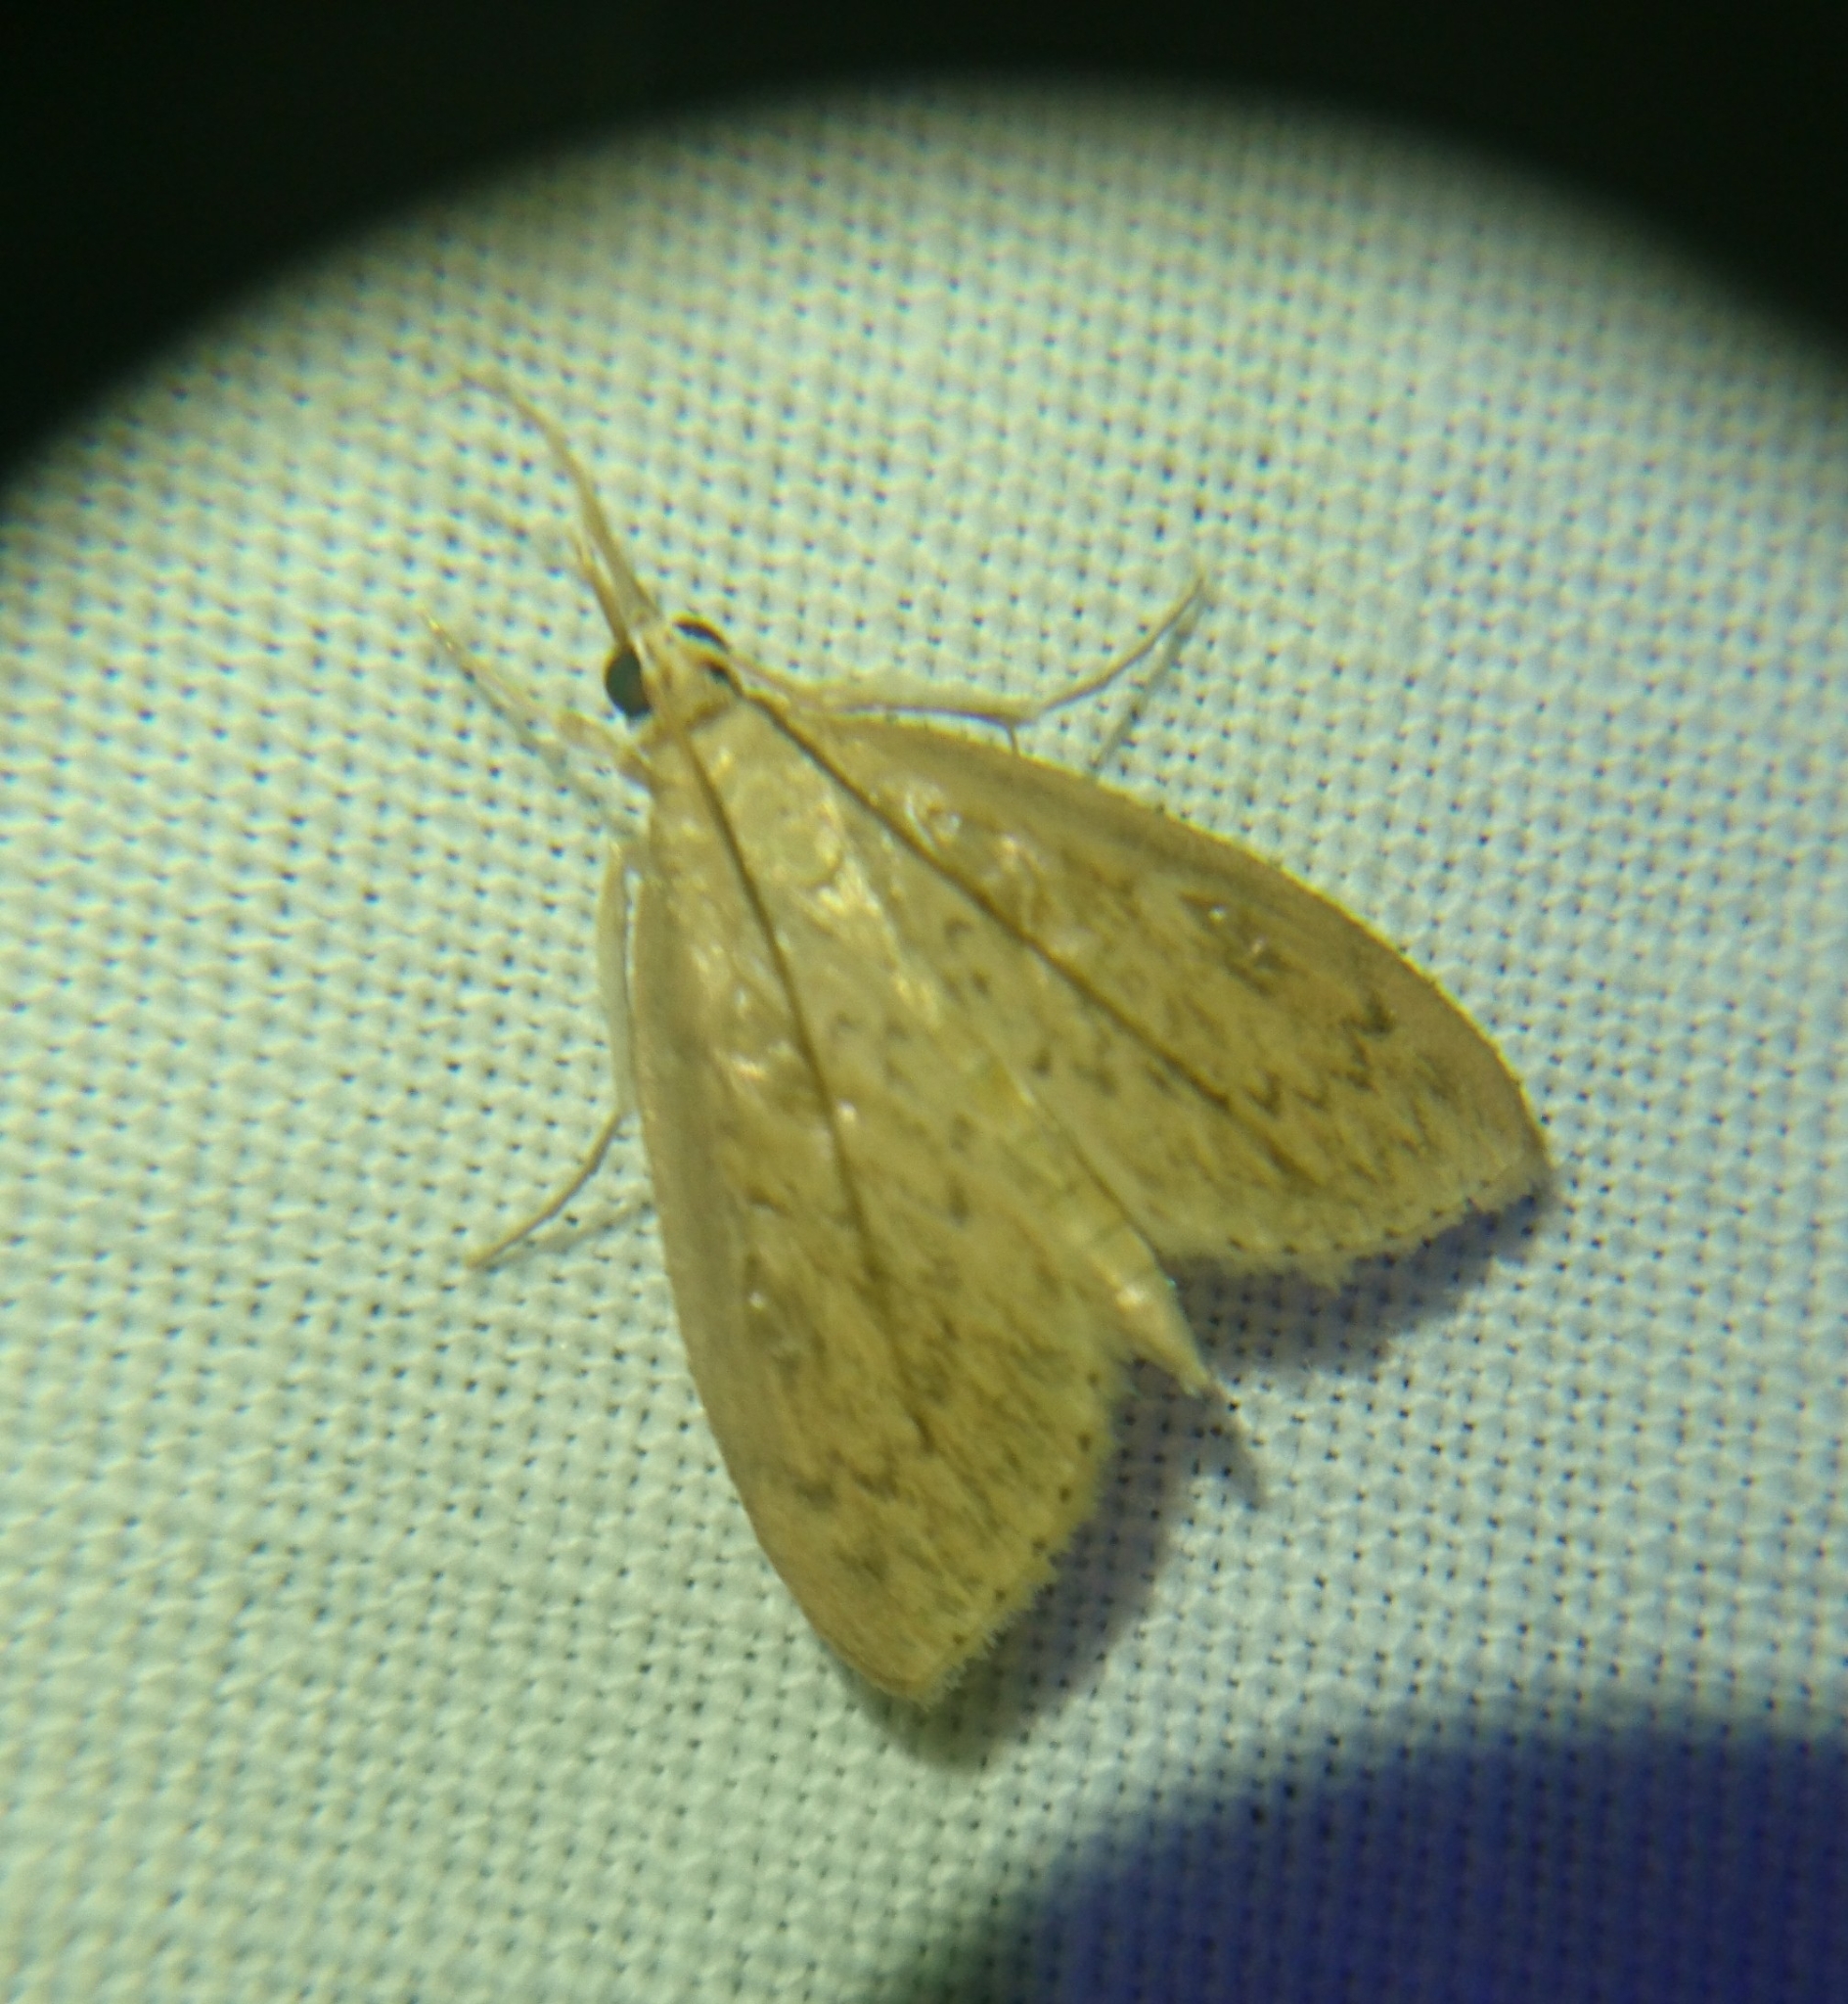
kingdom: Animalia
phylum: Arthropoda
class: Insecta
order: Lepidoptera
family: Crambidae
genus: Crocidophora
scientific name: Crocidophora pustuliferalis
